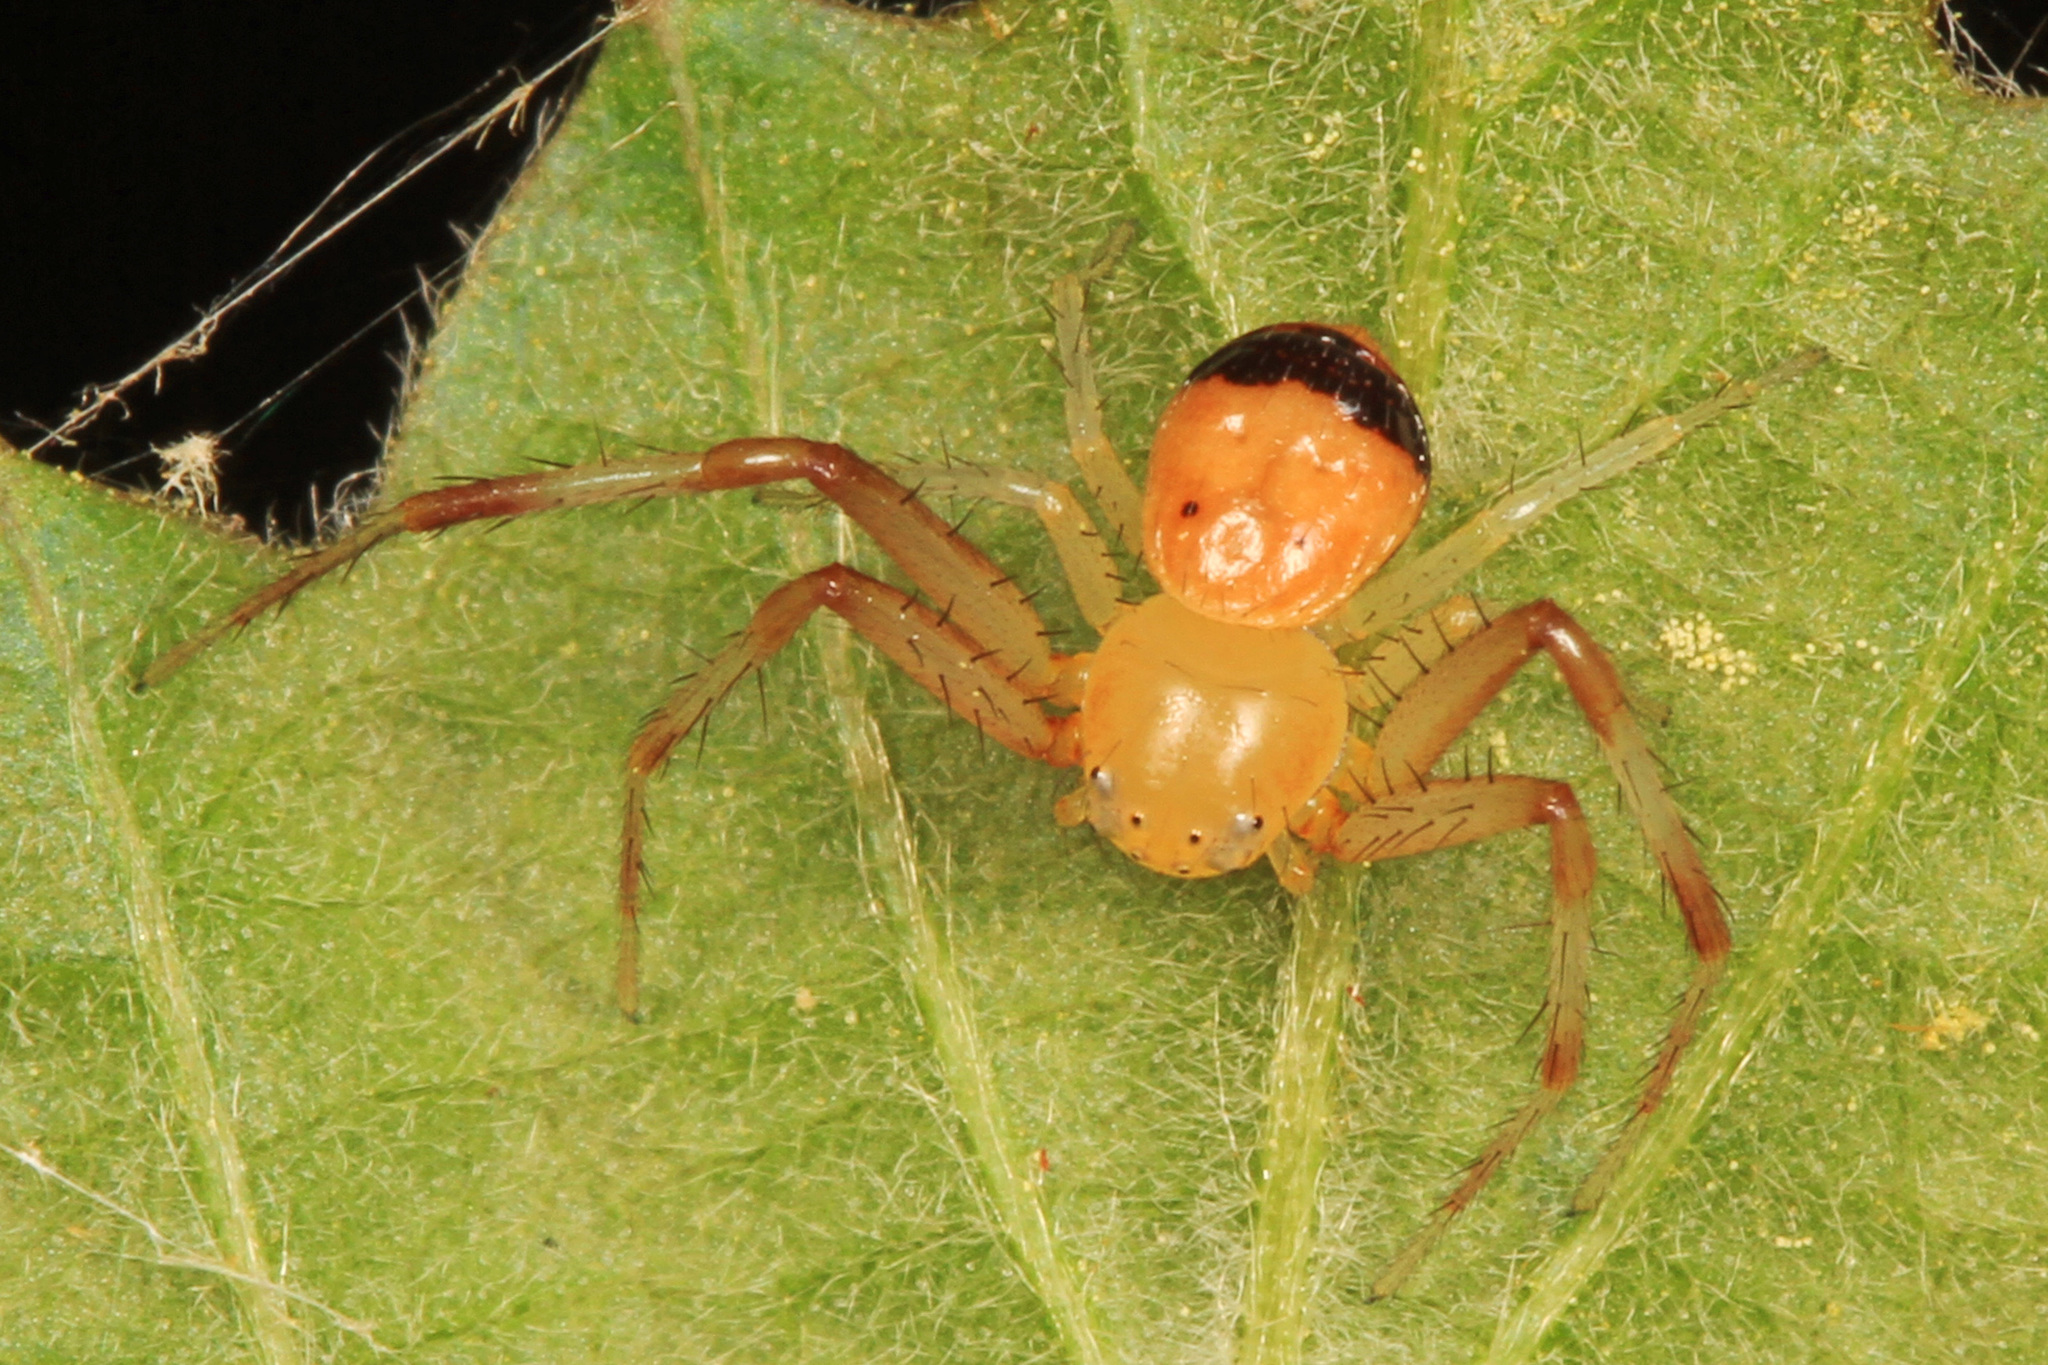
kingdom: Animalia
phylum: Arthropoda
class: Arachnida
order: Araneae
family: Thomisidae
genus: Synema
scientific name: Synema parvulum
